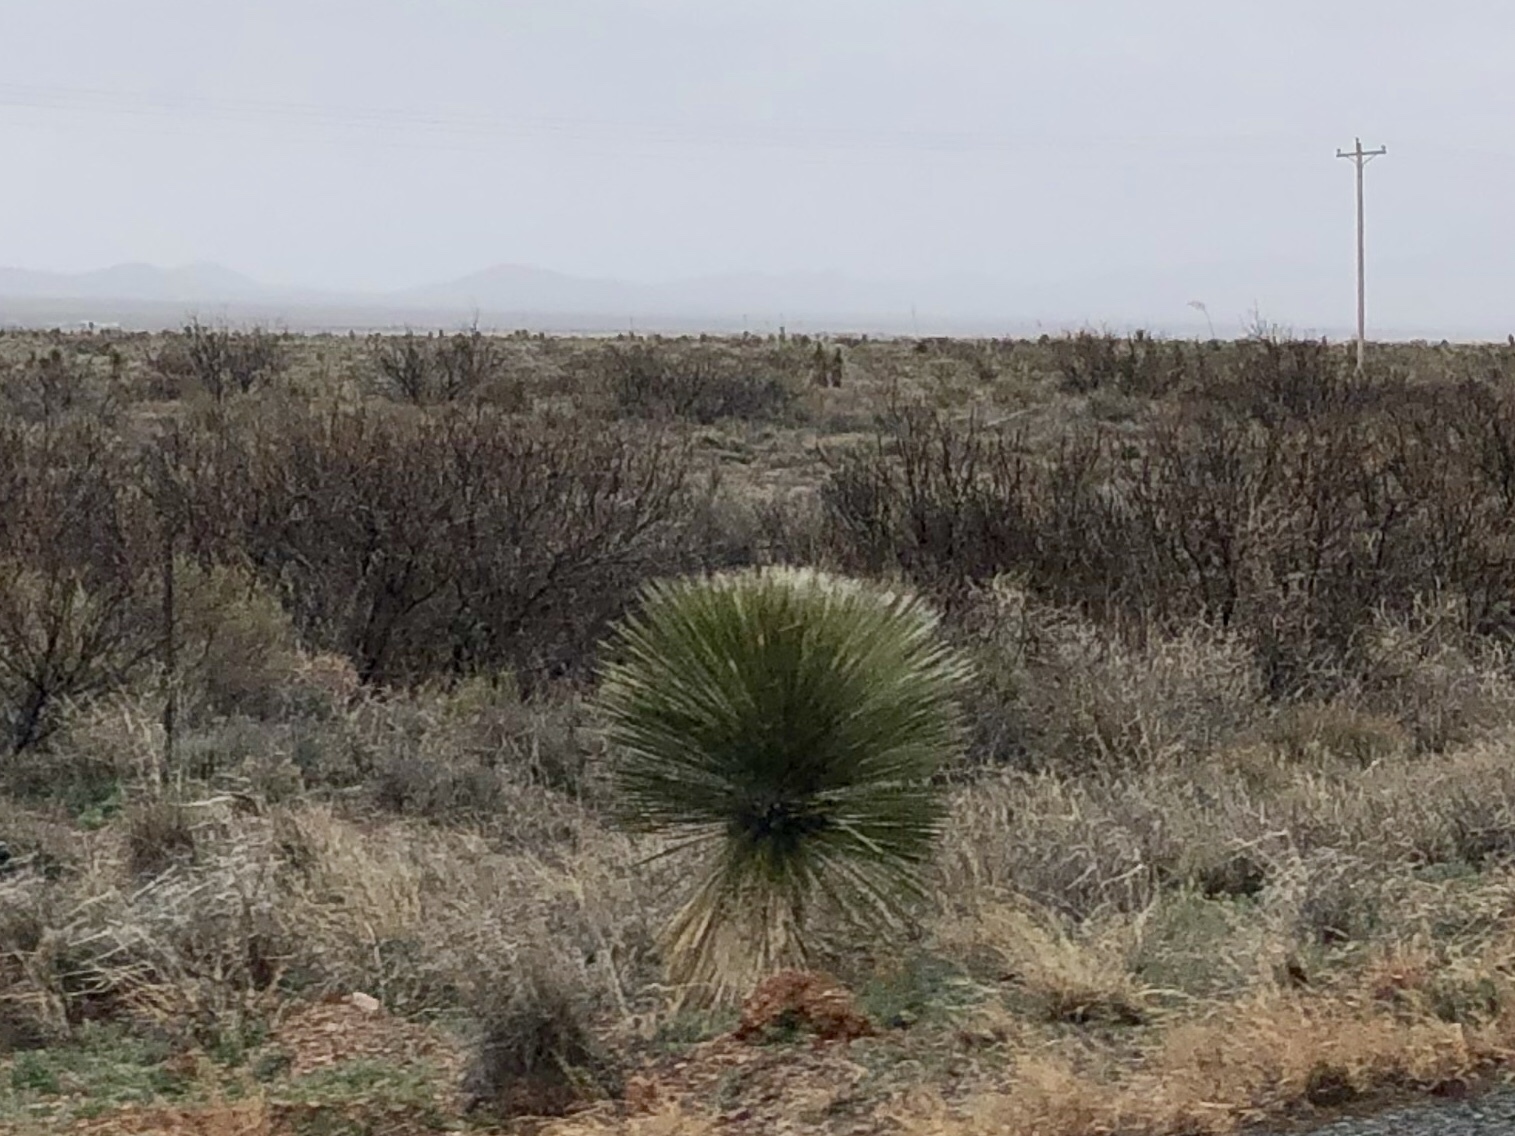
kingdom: Plantae
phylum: Tracheophyta
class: Liliopsida
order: Asparagales
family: Asparagaceae
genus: Yucca
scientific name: Yucca elata
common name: Palmella
